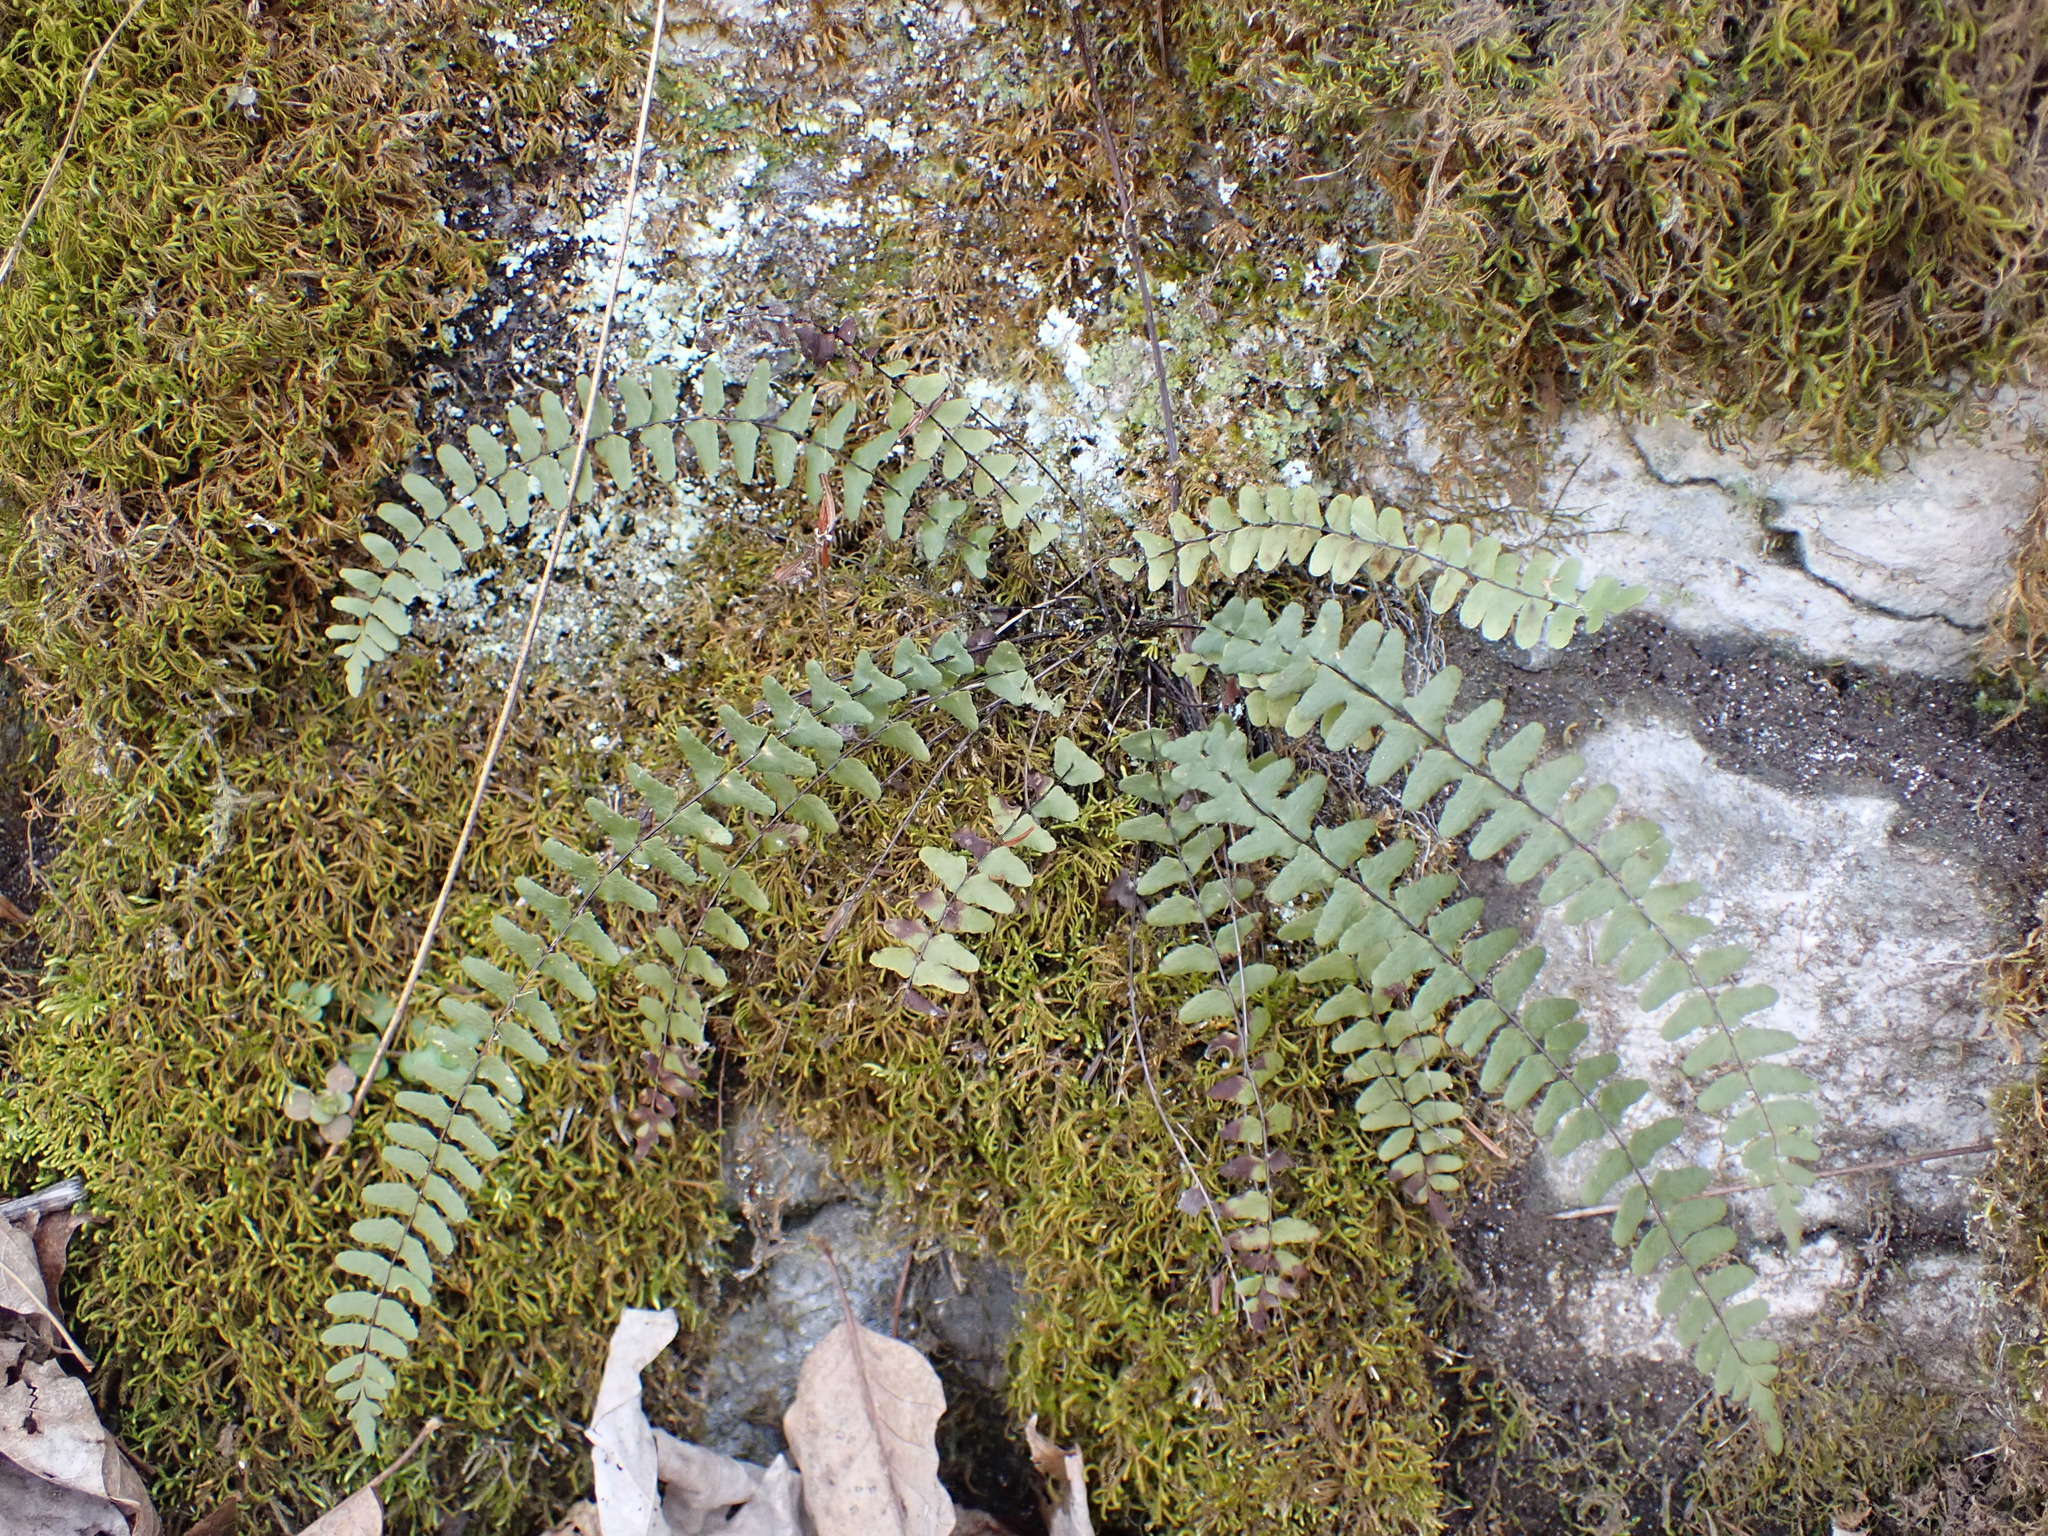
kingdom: Plantae
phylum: Tracheophyta
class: Polypodiopsida
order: Polypodiales
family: Aspleniaceae
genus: Asplenium
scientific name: Asplenium resiliens
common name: Blackstem spleenwort
